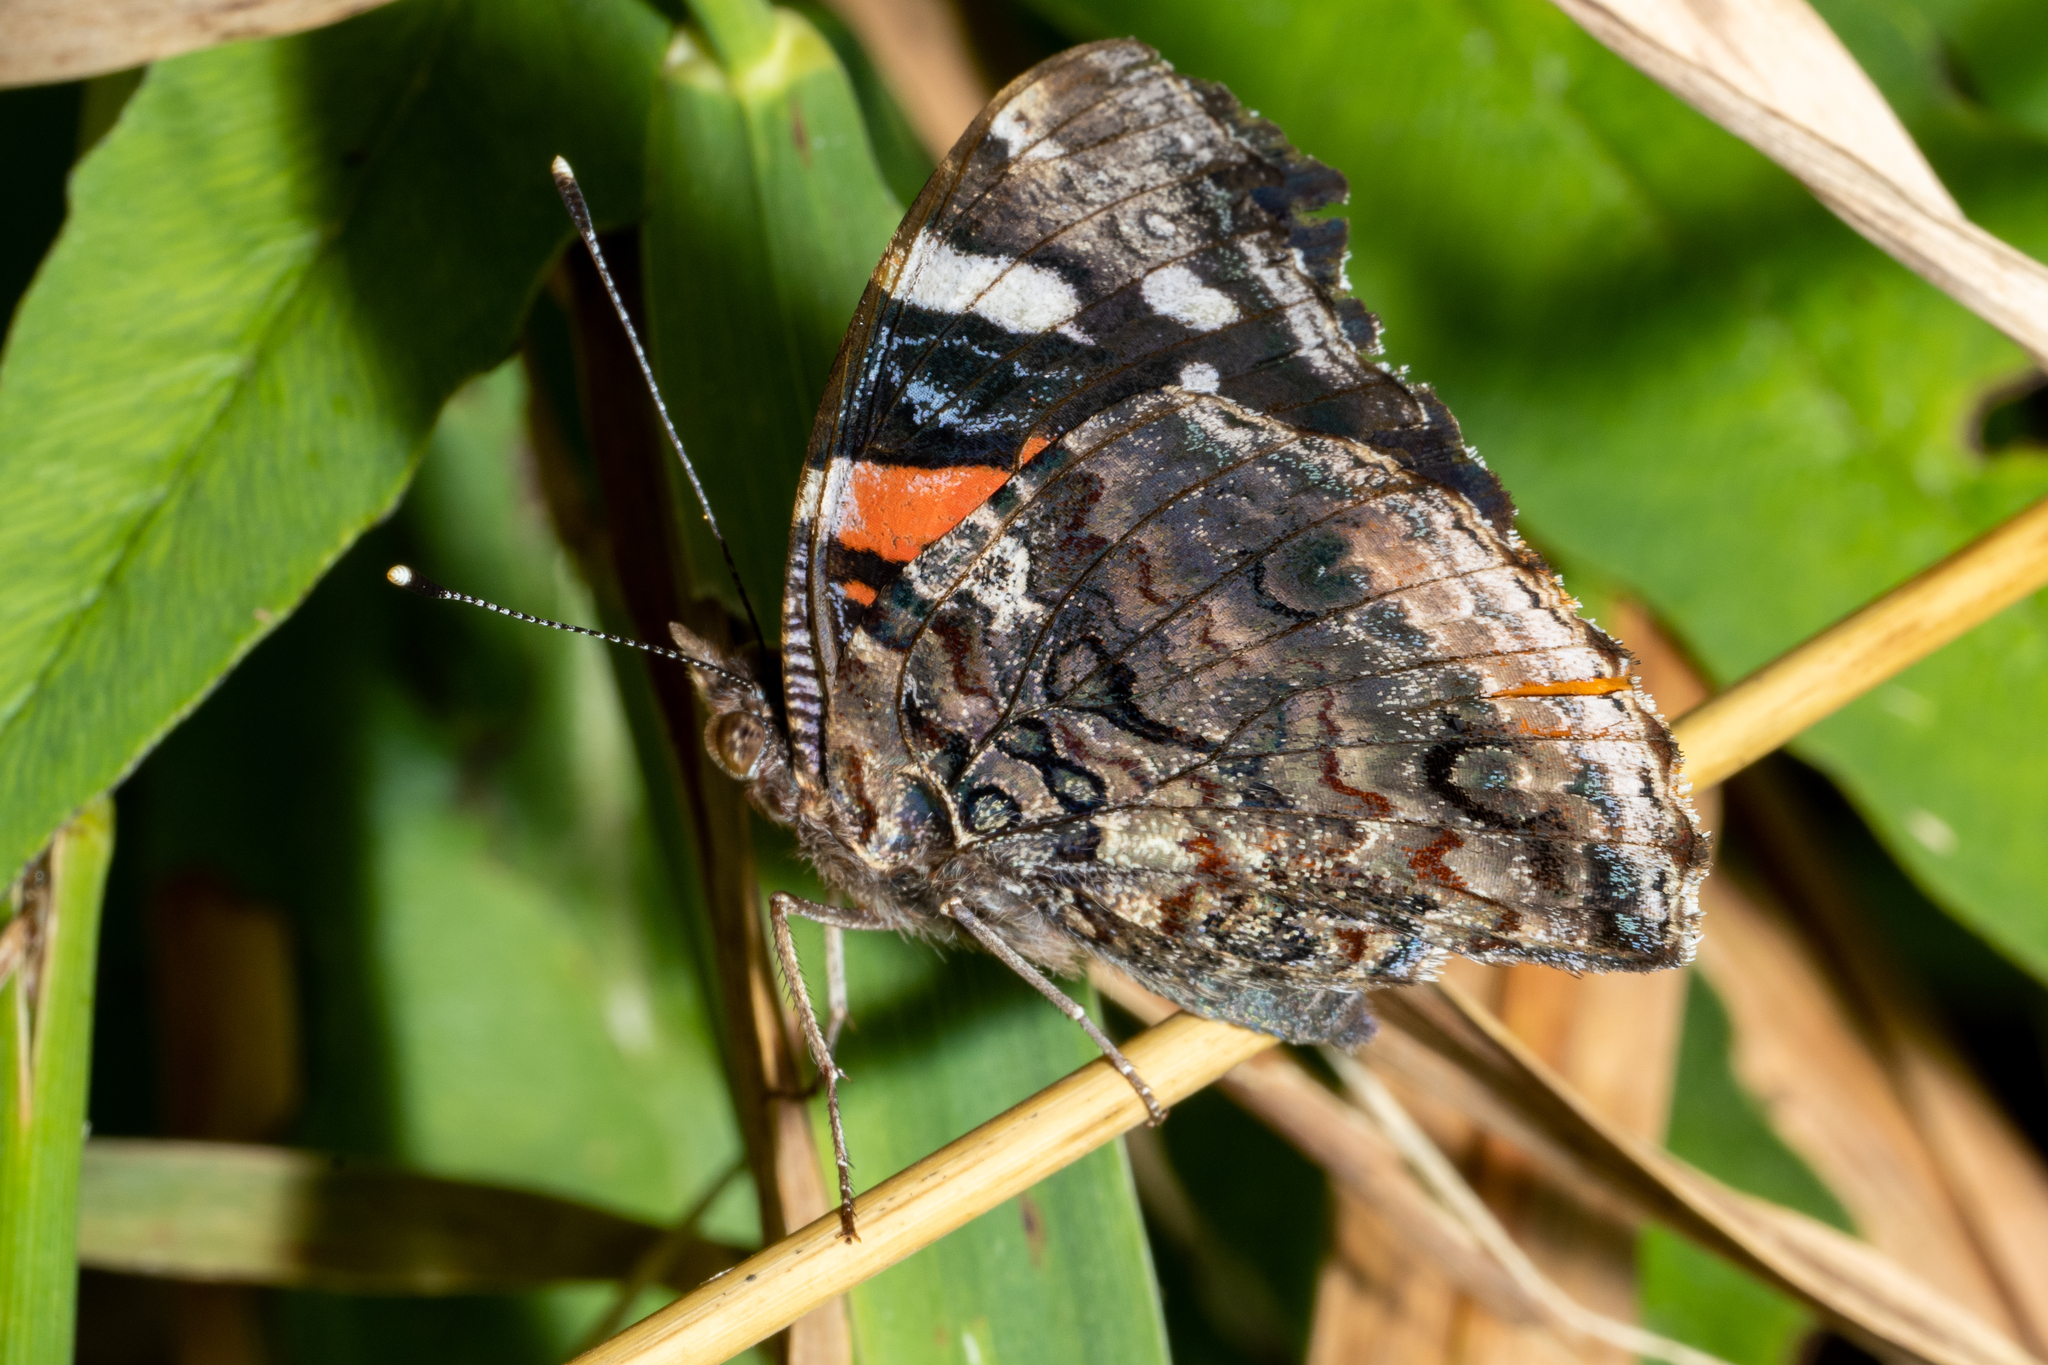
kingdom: Animalia
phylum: Arthropoda
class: Insecta
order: Lepidoptera
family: Nymphalidae
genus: Vanessa
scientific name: Vanessa atalanta
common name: Red admiral
